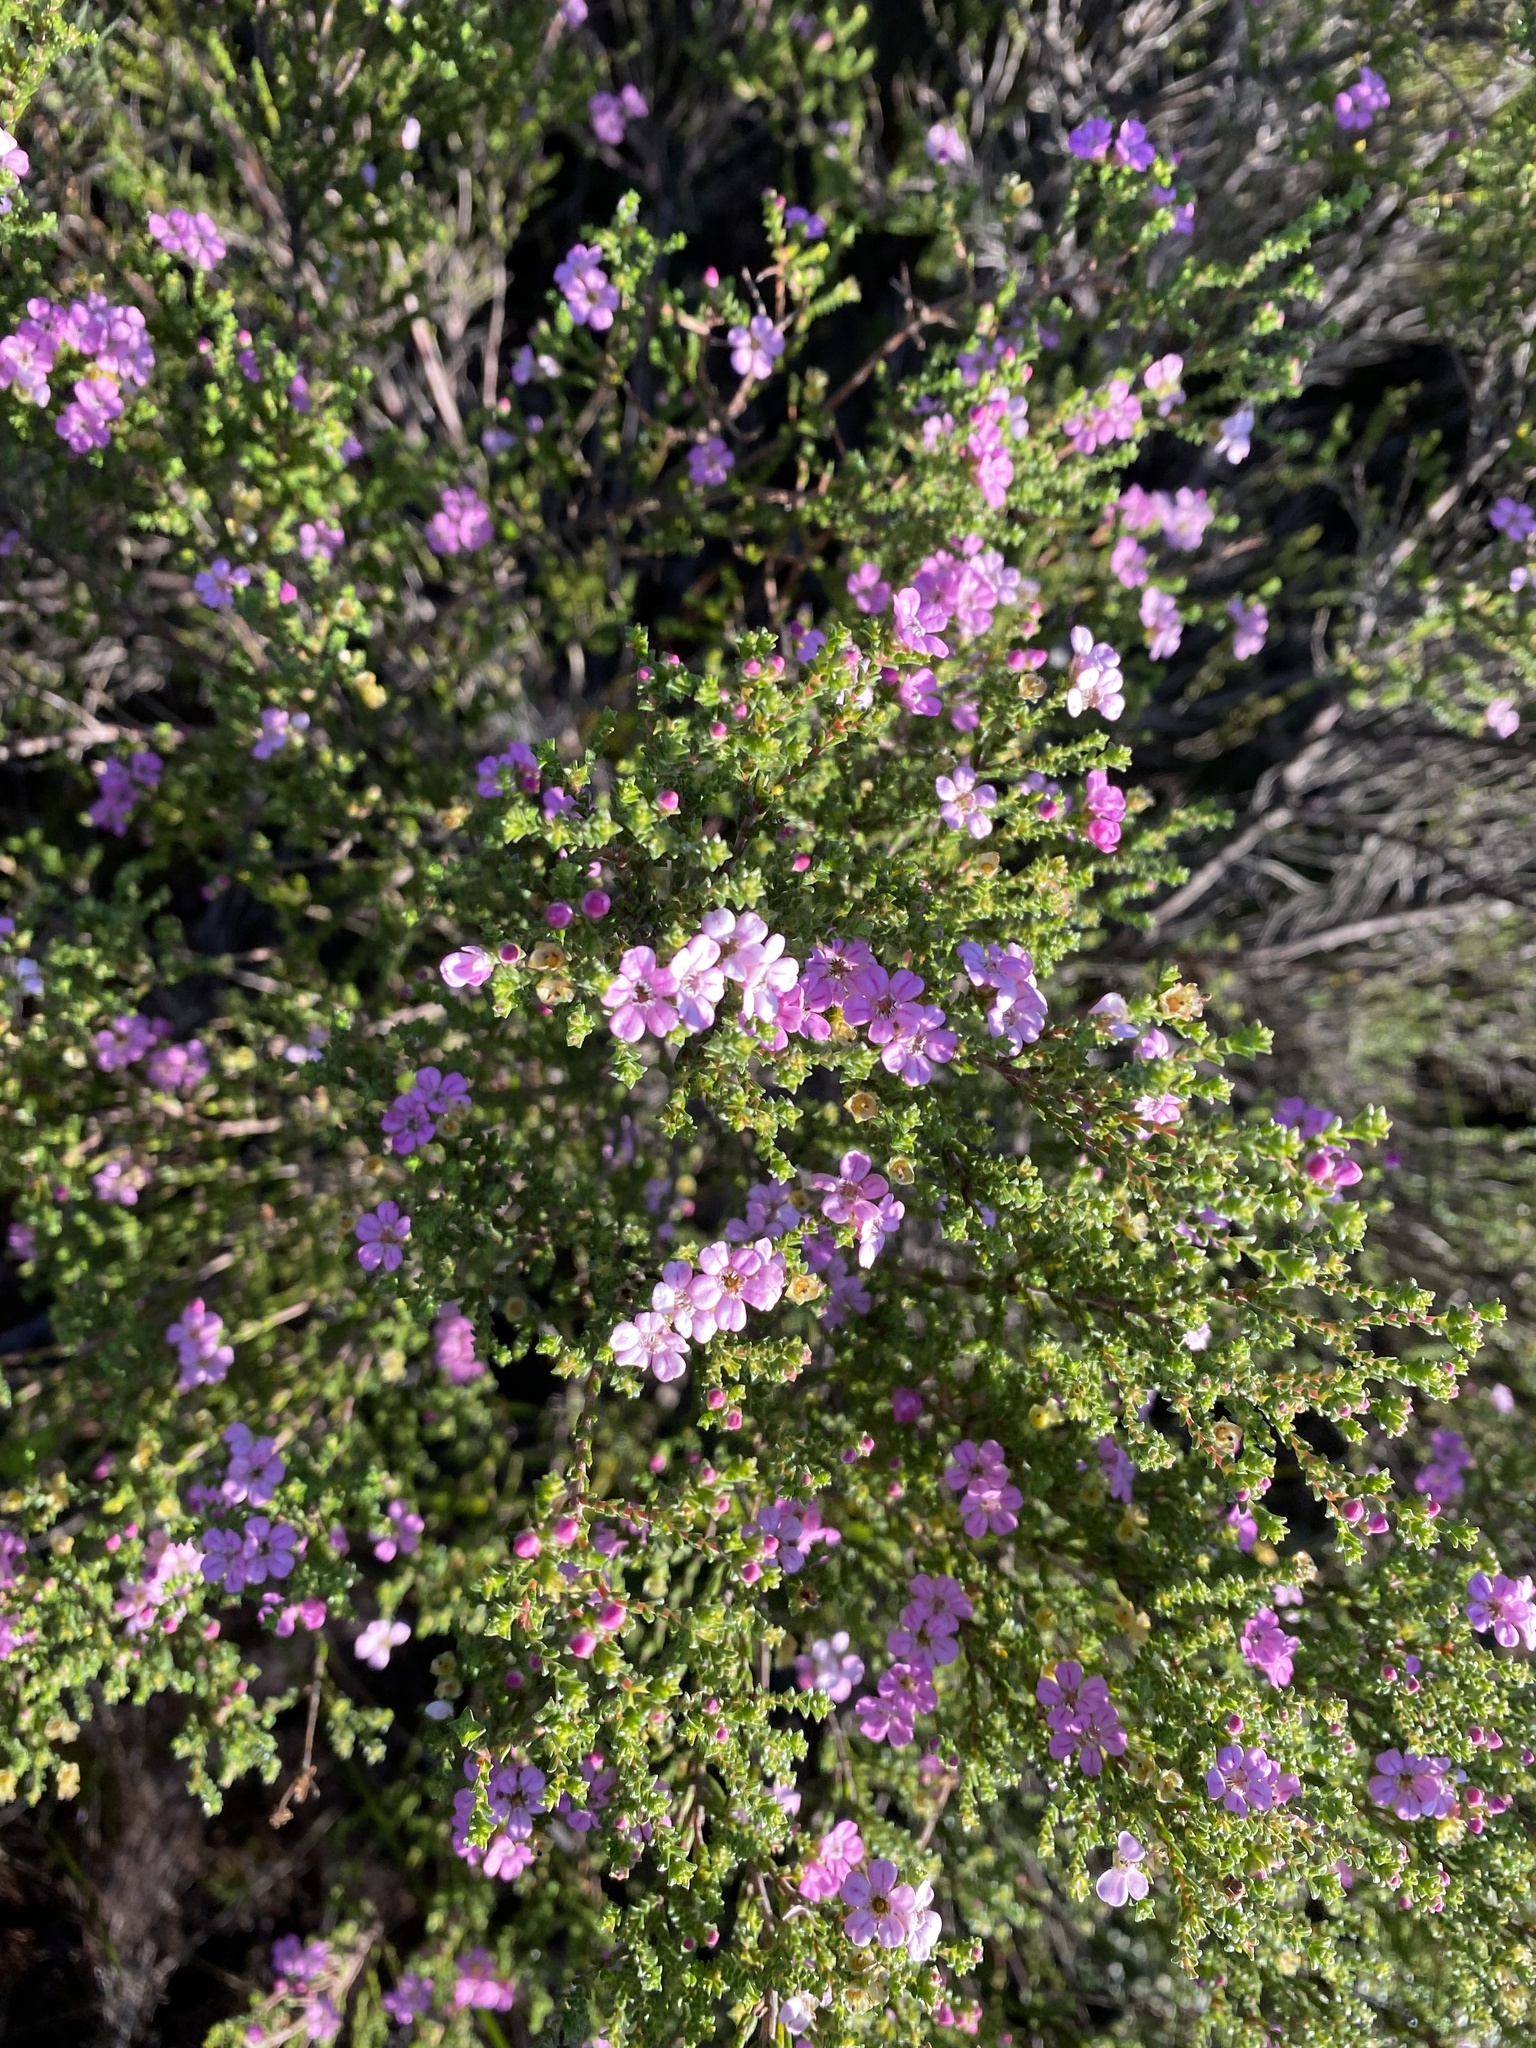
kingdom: Plantae
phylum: Tracheophyta
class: Magnoliopsida
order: Sapindales
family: Rutaceae
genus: Euchaetis
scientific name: Euchaetis albertiniana
